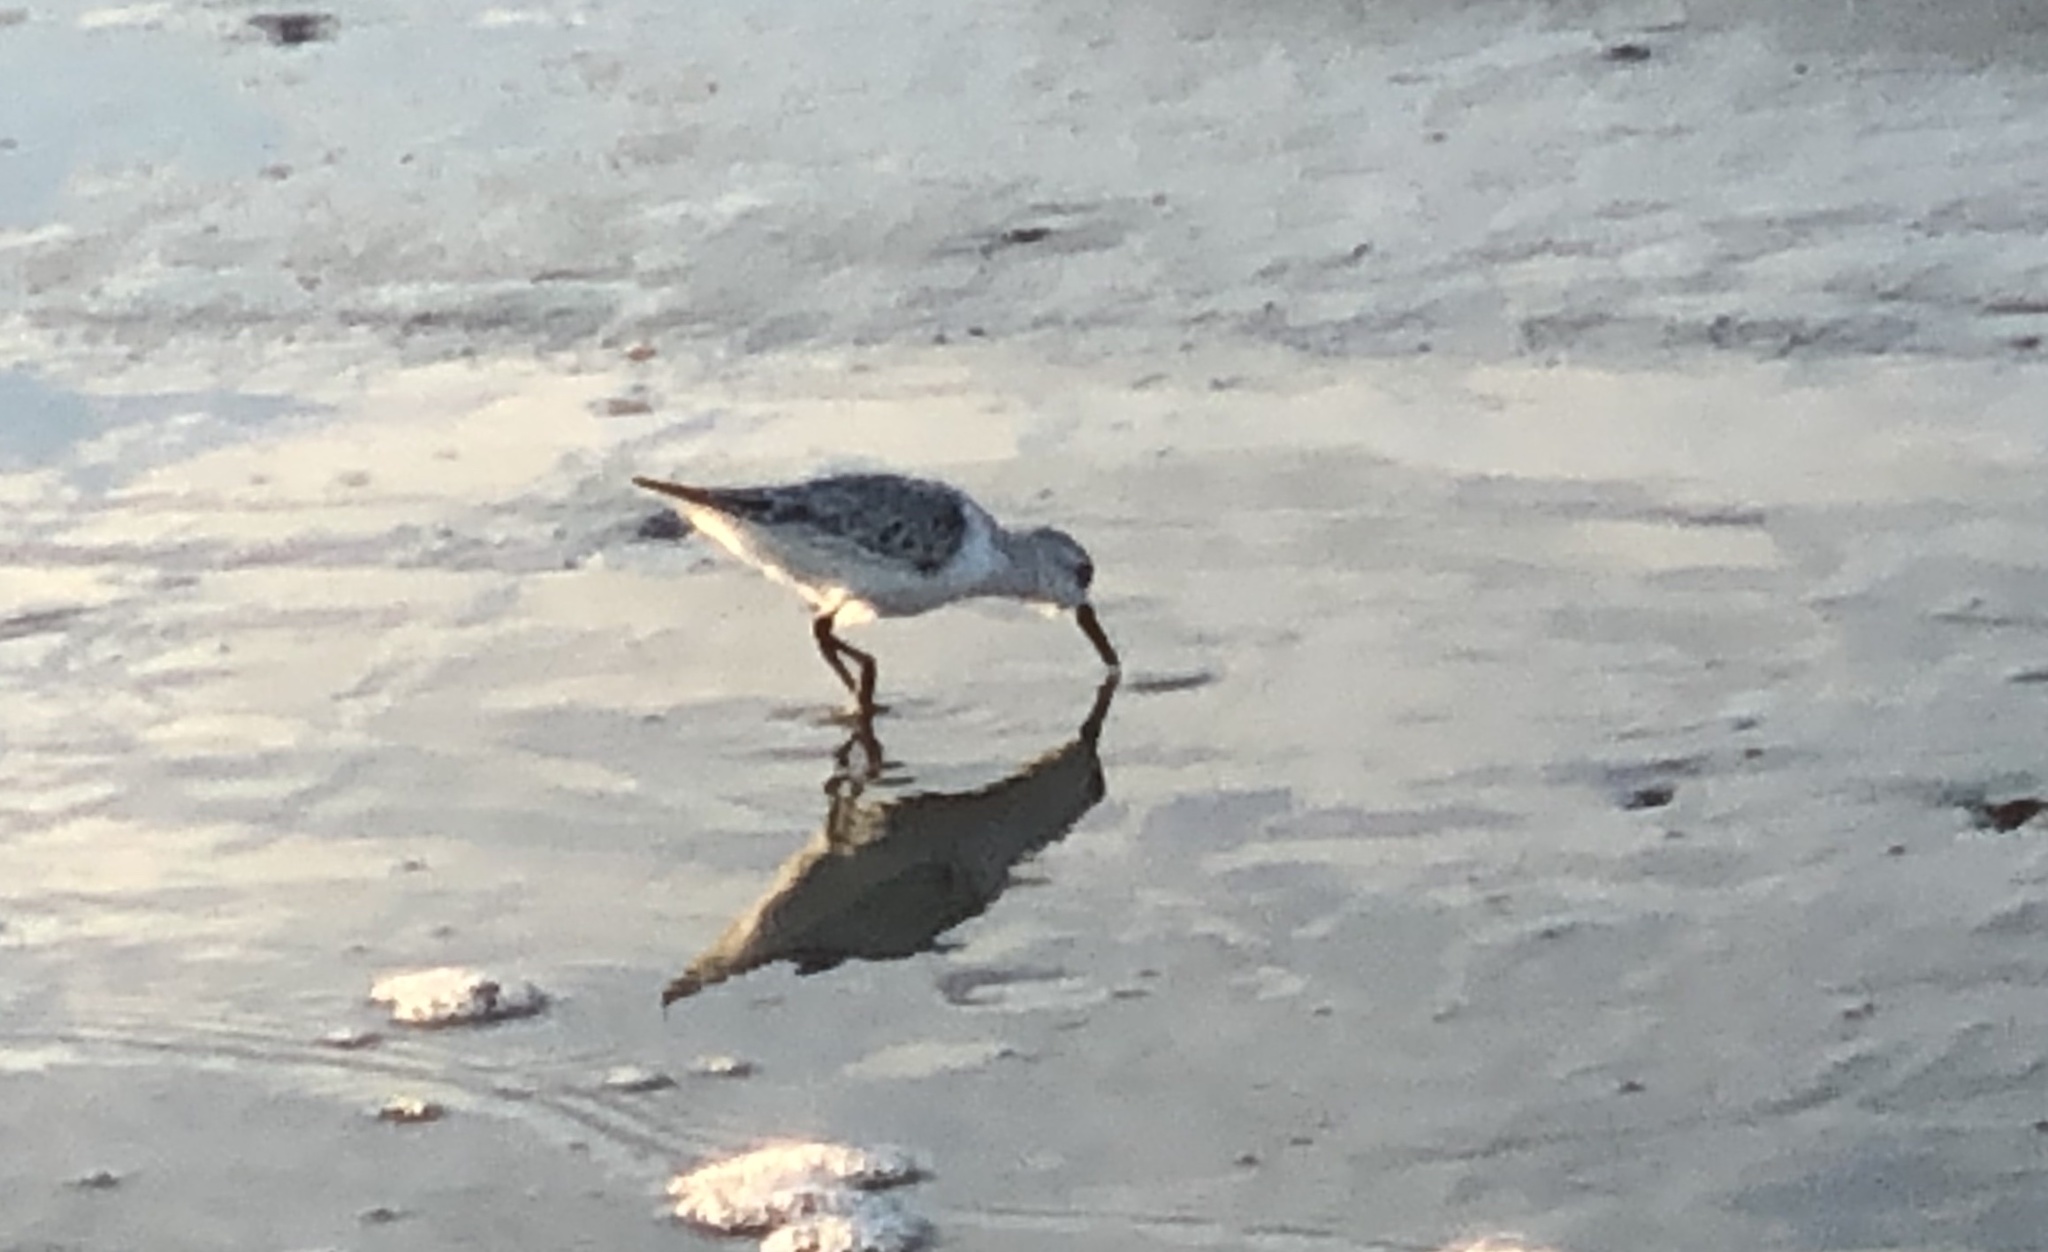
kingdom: Animalia
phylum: Chordata
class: Aves
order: Charadriiformes
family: Scolopacidae
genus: Calidris
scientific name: Calidris alba
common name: Sanderling
